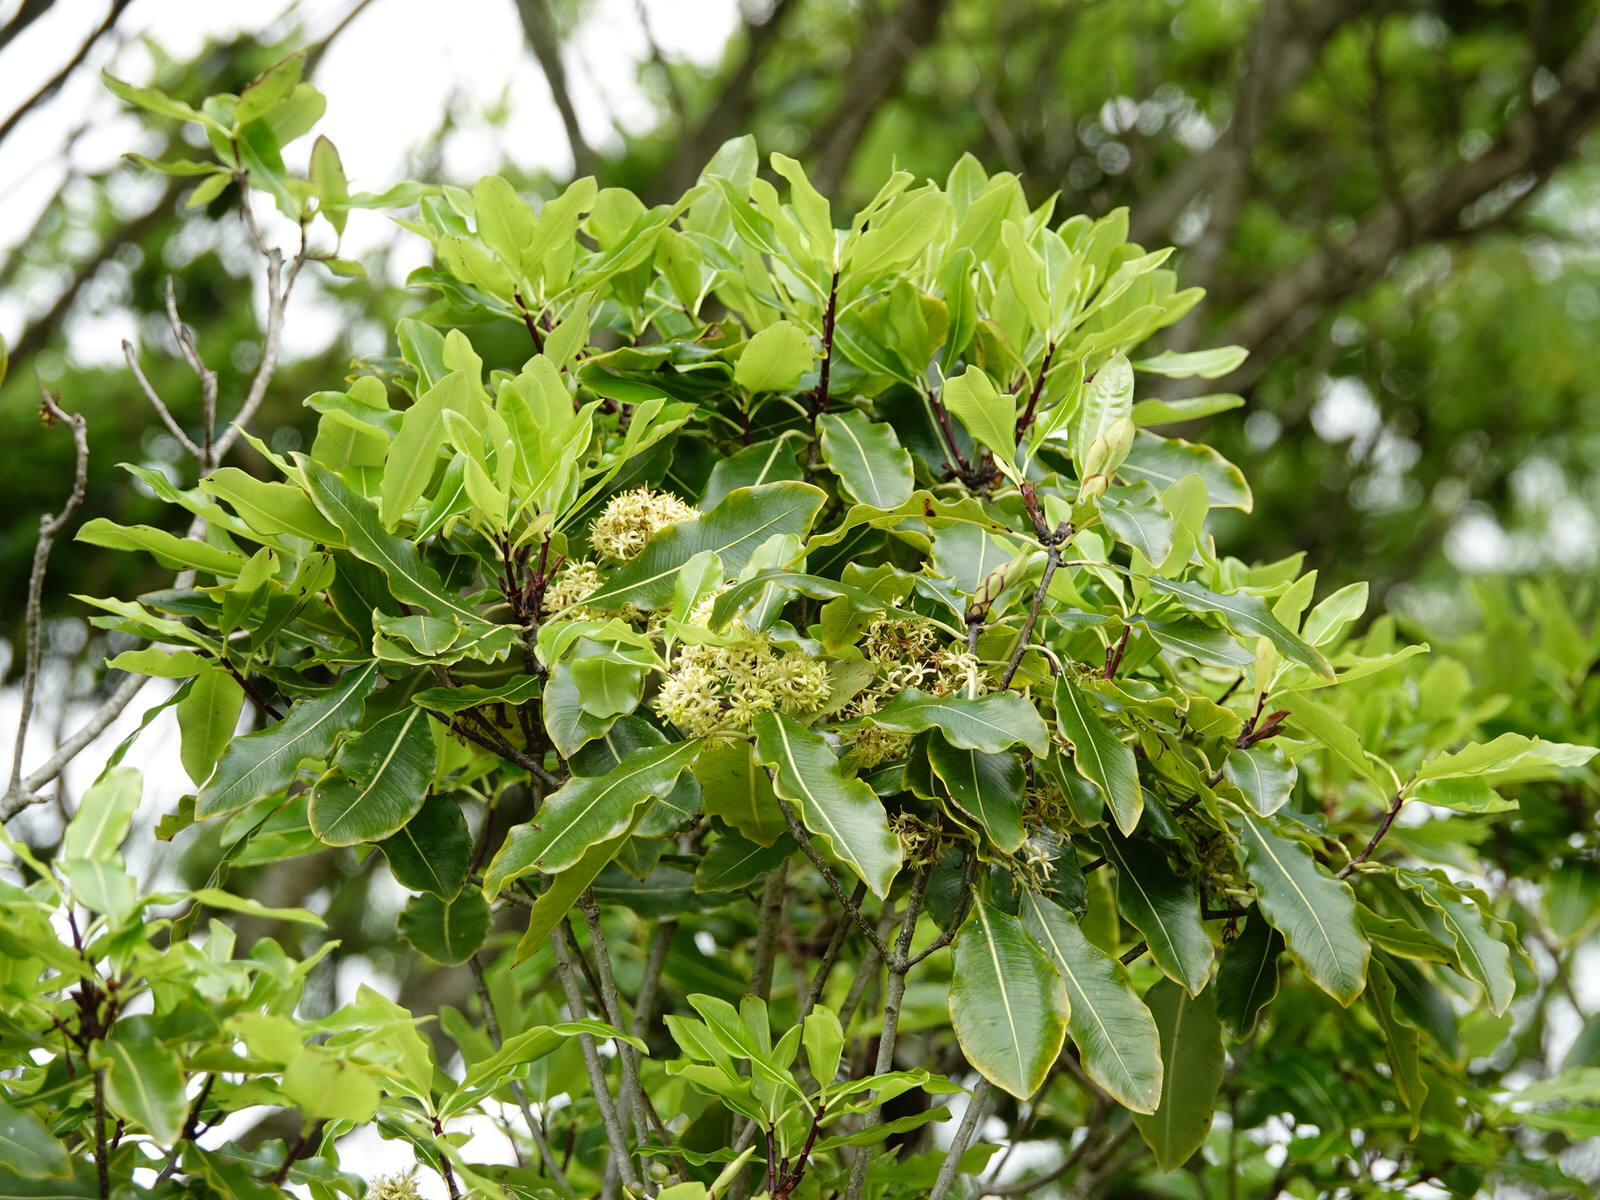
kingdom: Plantae
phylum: Tracheophyta
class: Magnoliopsida
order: Apiales
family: Pittosporaceae
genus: Pittosporum
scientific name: Pittosporum eugenioides
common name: Lemonwood
